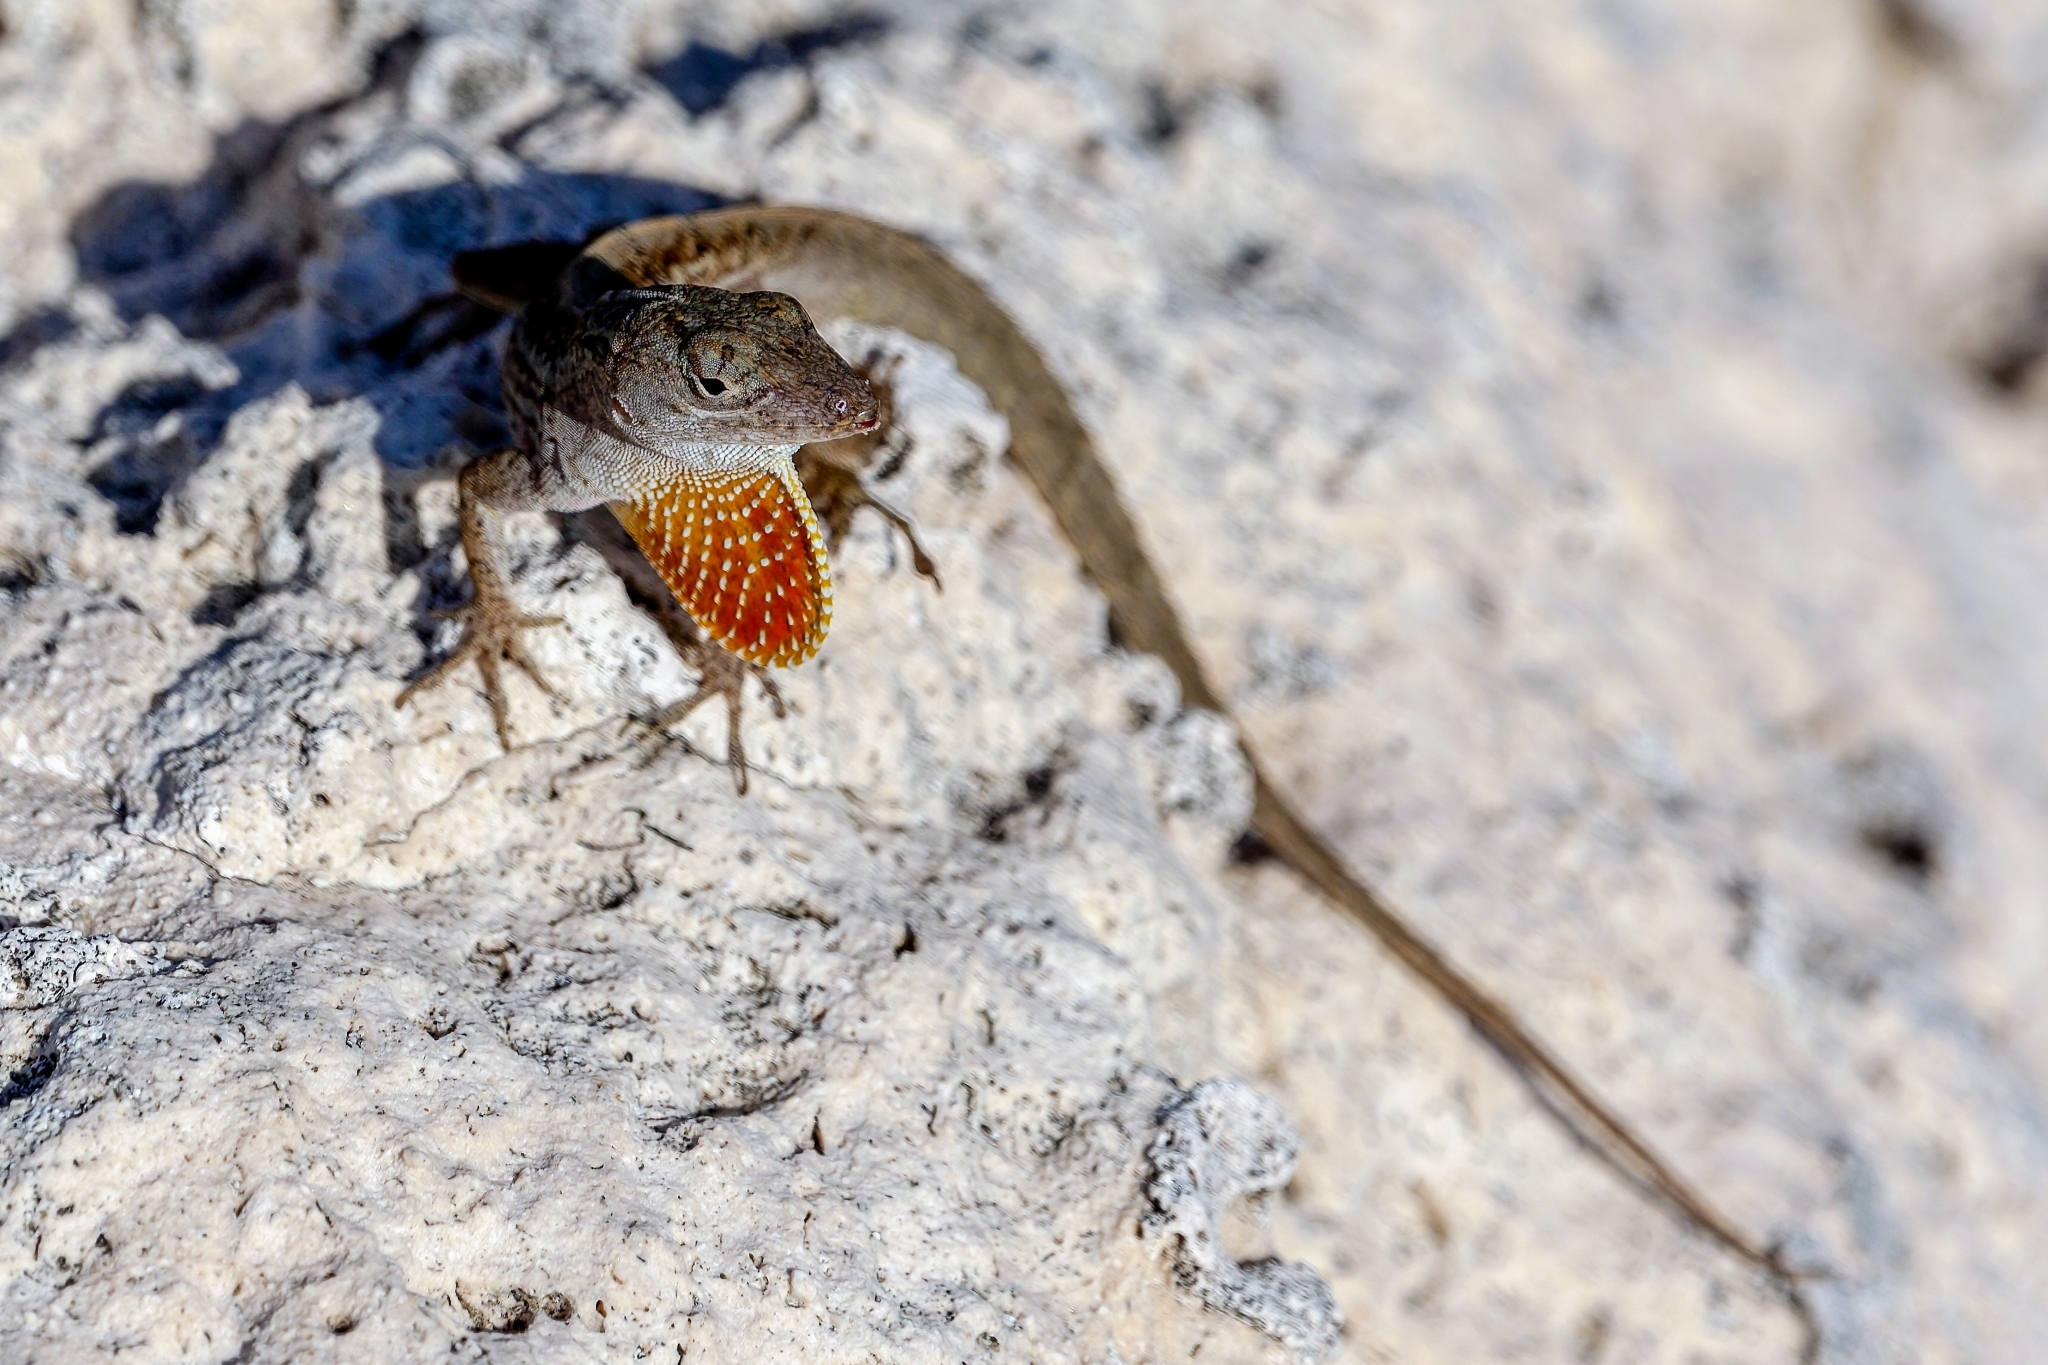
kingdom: Animalia
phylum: Chordata
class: Squamata
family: Dactyloidae
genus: Anolis
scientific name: Anolis sagrei
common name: Brown anole
